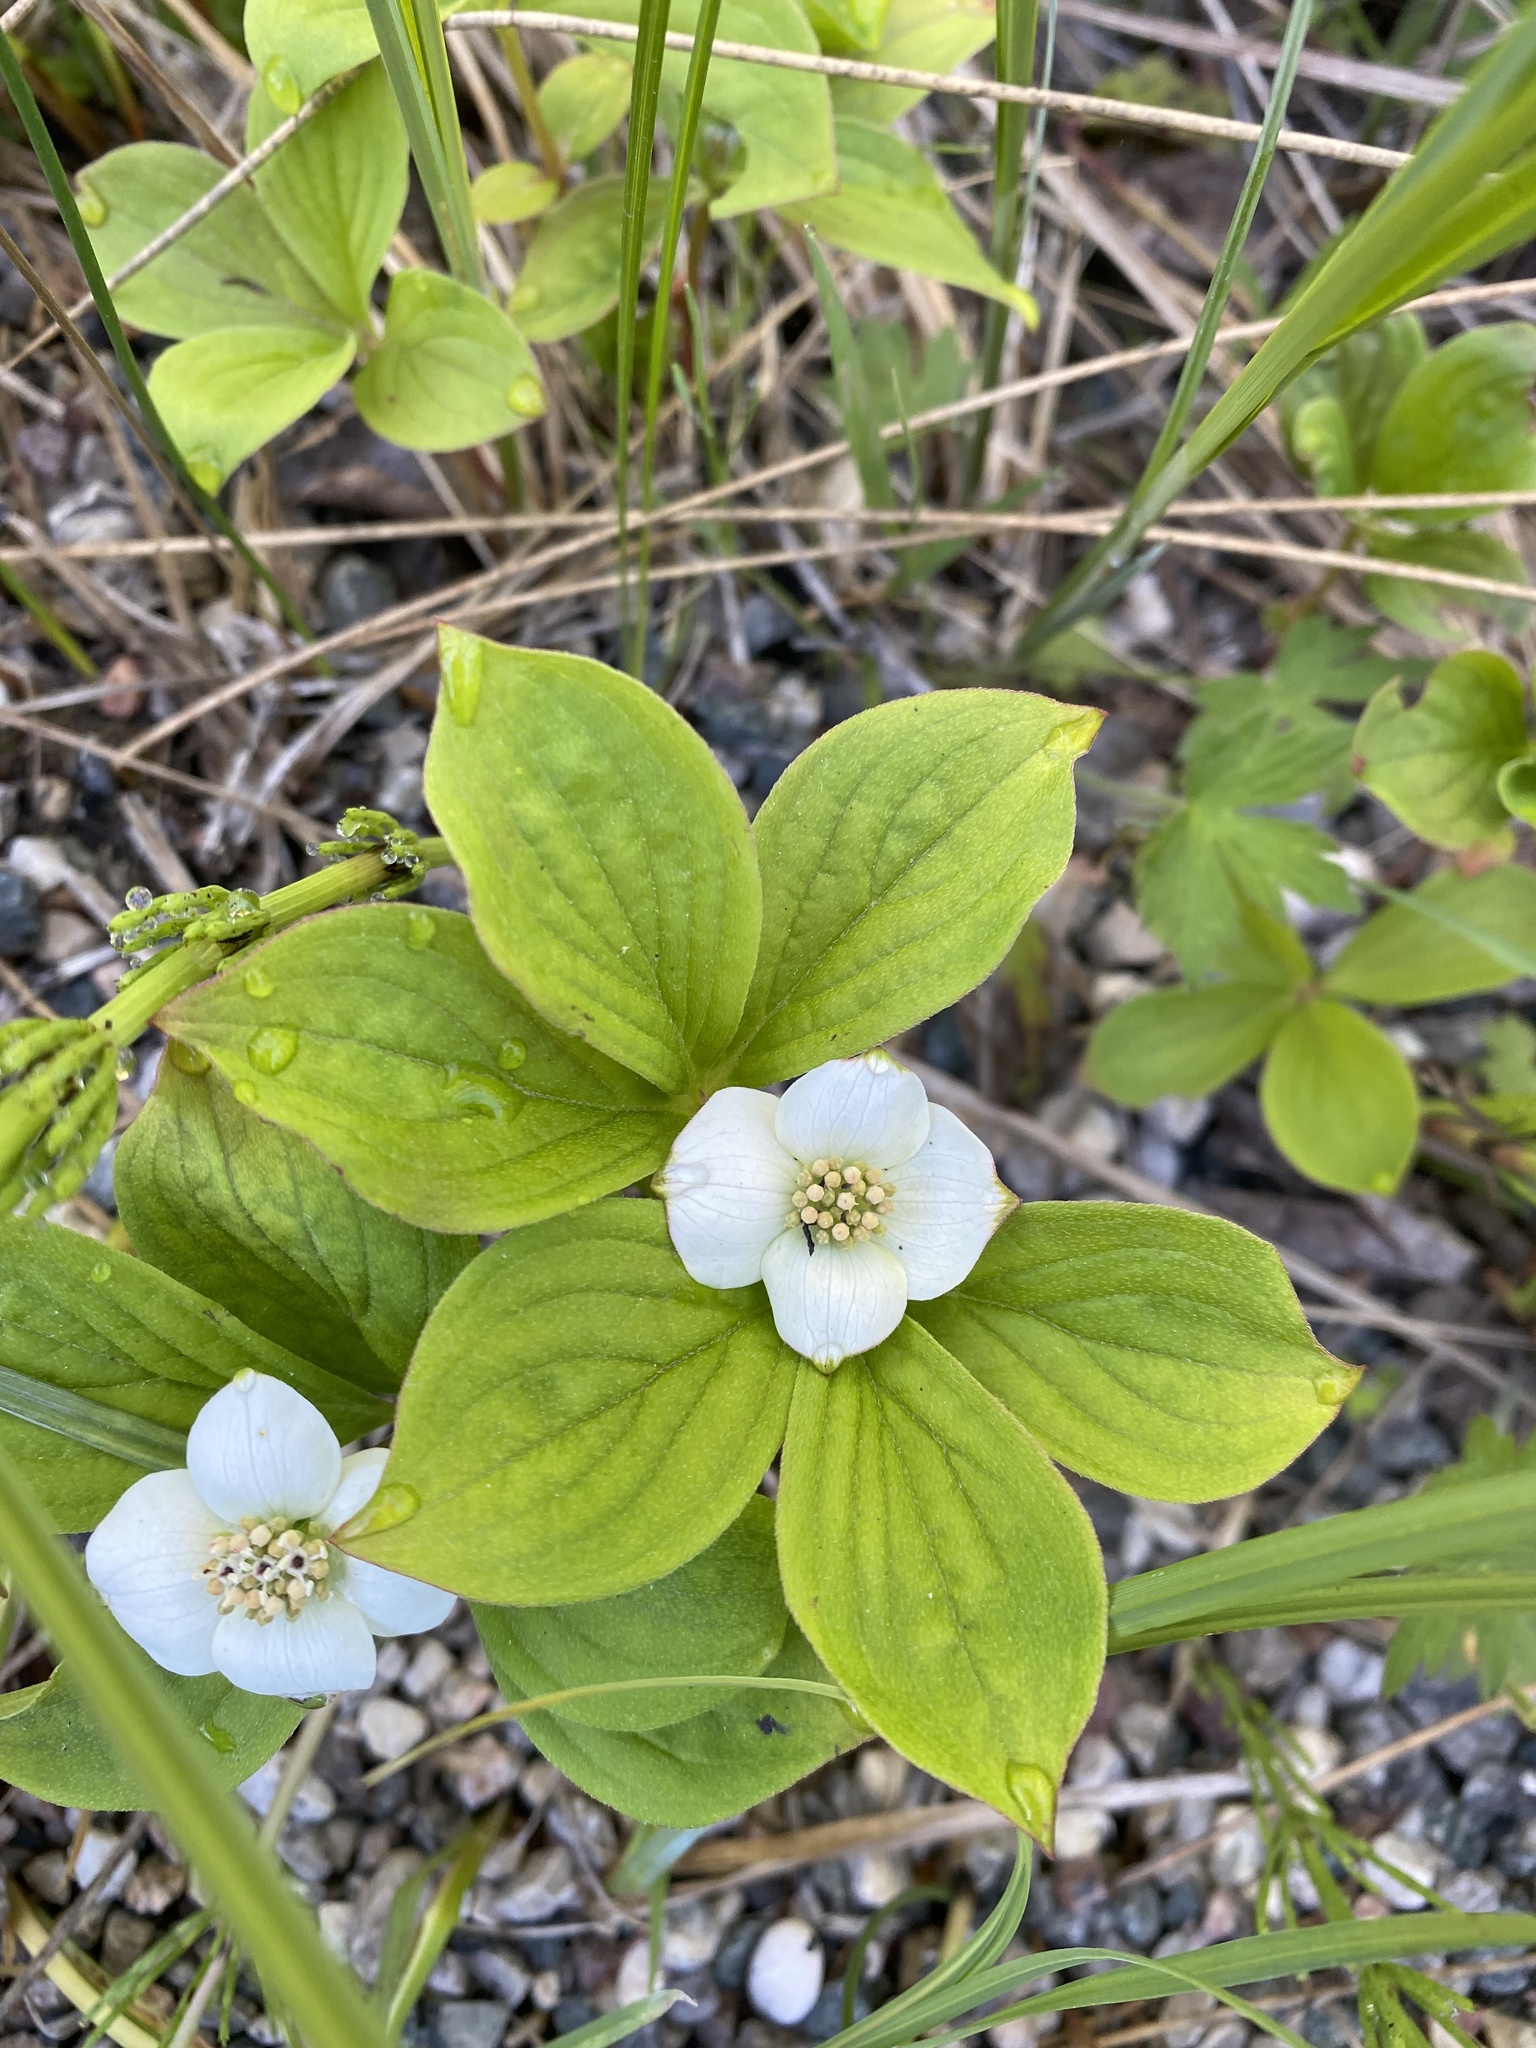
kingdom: Plantae
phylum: Tracheophyta
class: Magnoliopsida
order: Cornales
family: Cornaceae
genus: Cornus
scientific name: Cornus canadensis
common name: Creeping dogwood
